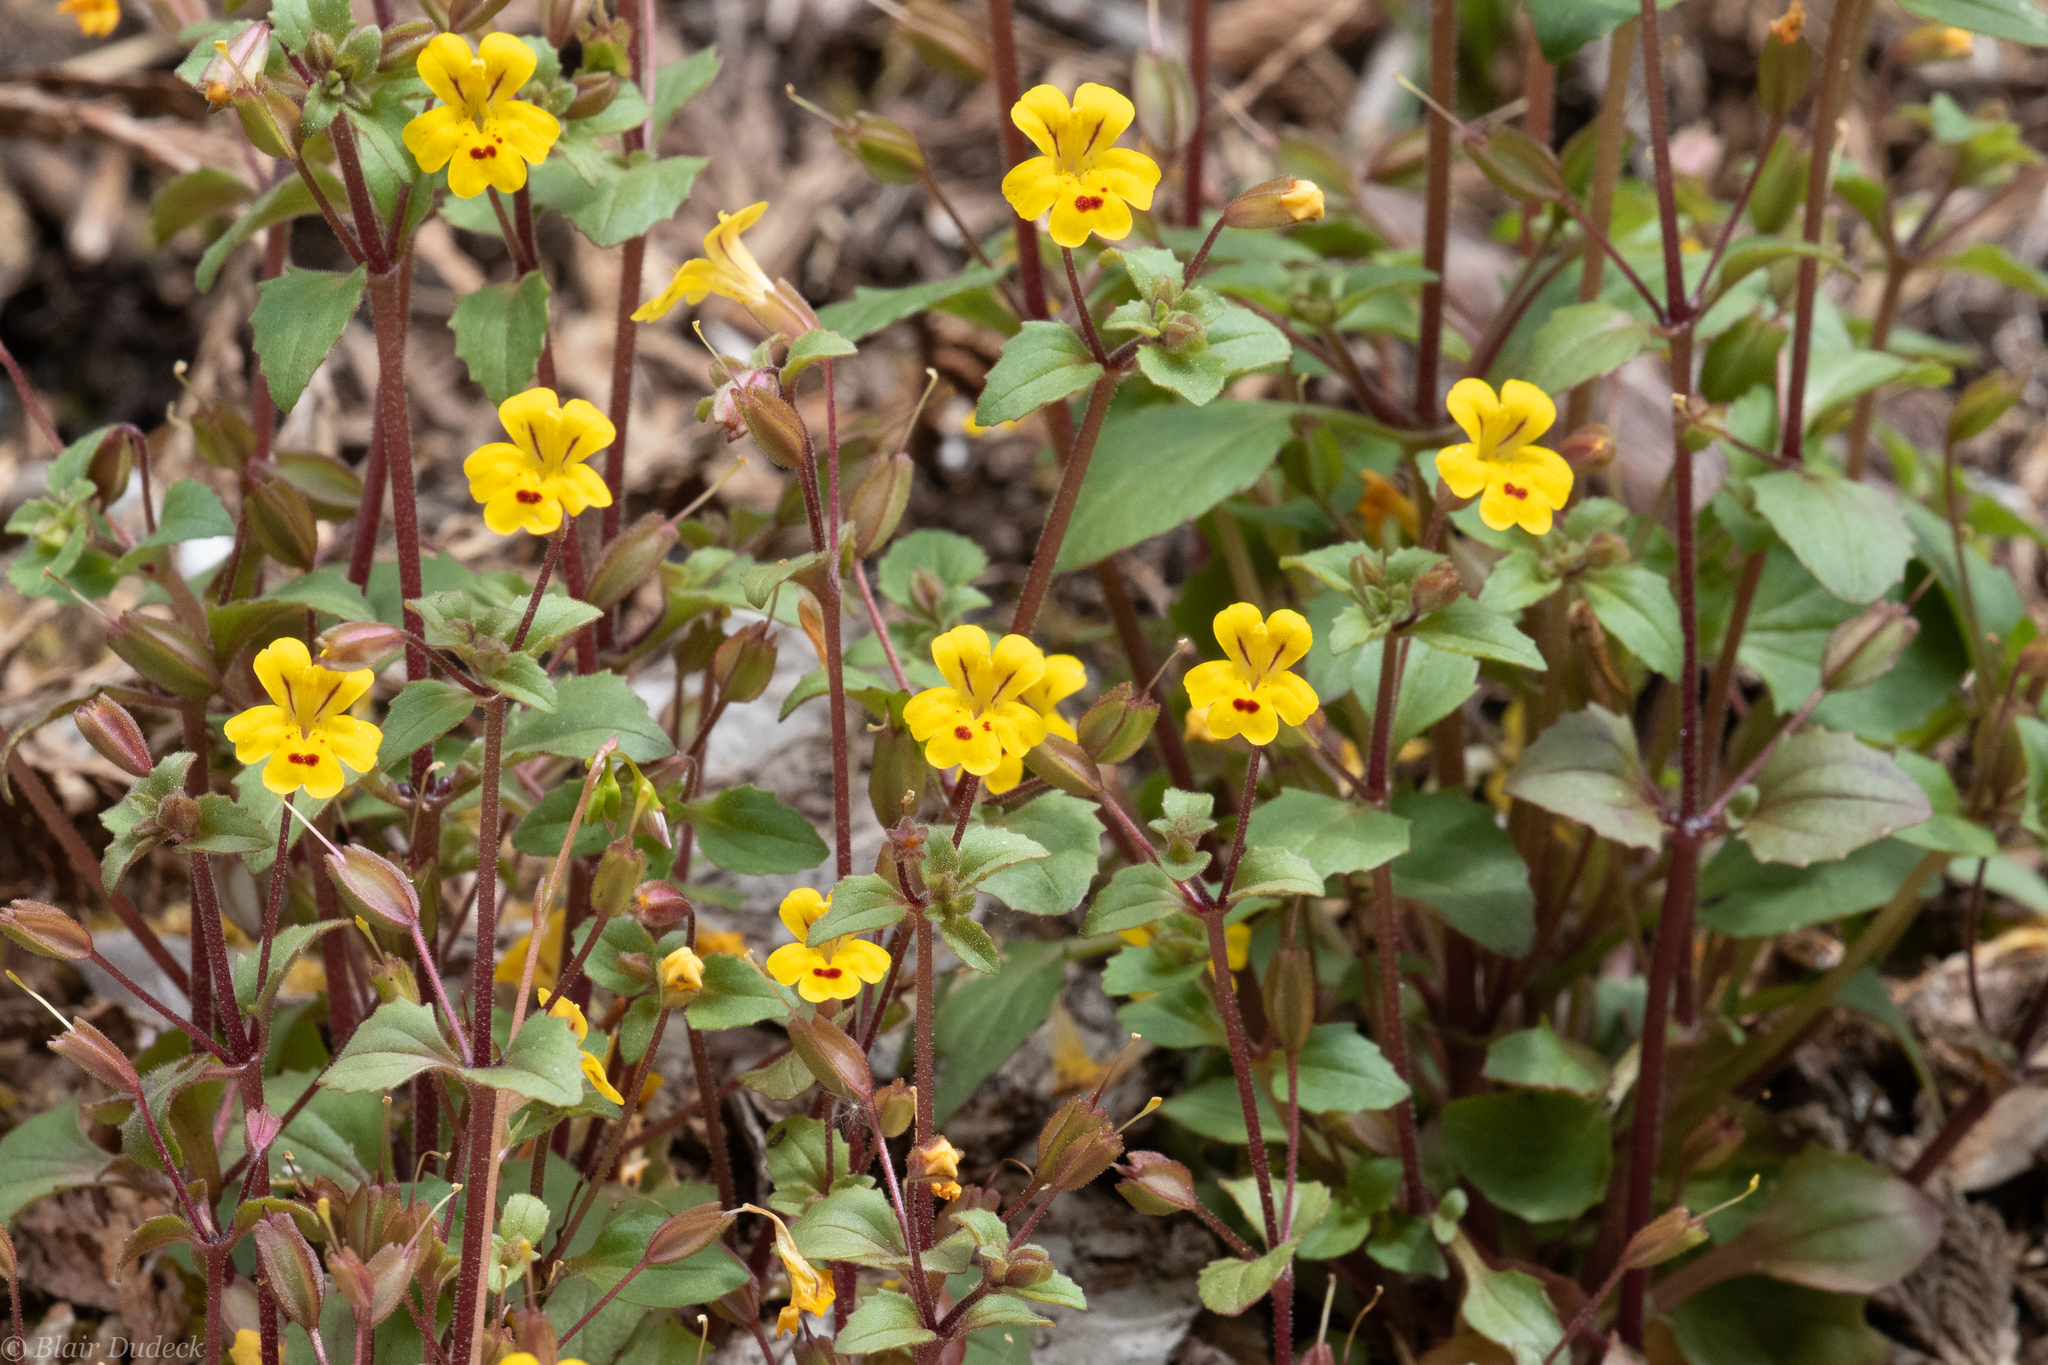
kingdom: Plantae
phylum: Tracheophyta
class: Magnoliopsida
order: Lamiales
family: Phrymaceae
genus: Erythranthe
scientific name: Erythranthe alsinoides
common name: Chickweed monkeyflower
